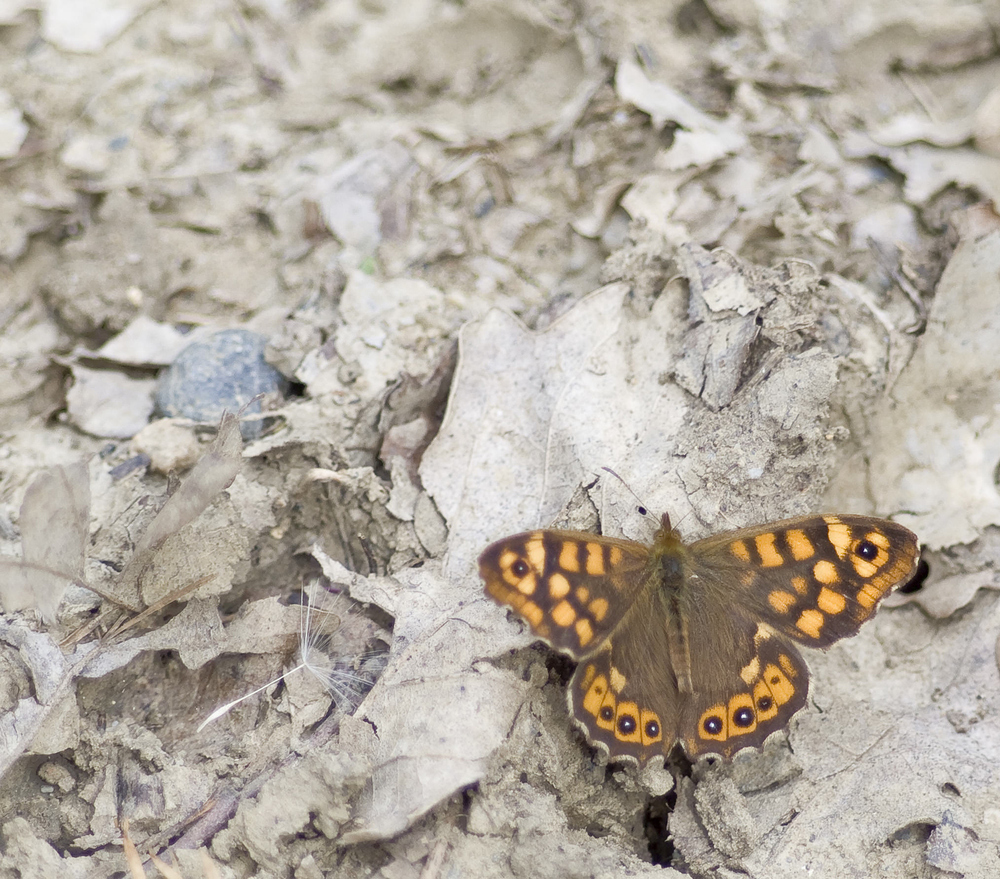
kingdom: Animalia
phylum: Arthropoda
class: Insecta
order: Lepidoptera
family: Nymphalidae
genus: Pararge
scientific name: Pararge aegeria
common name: Speckled wood
